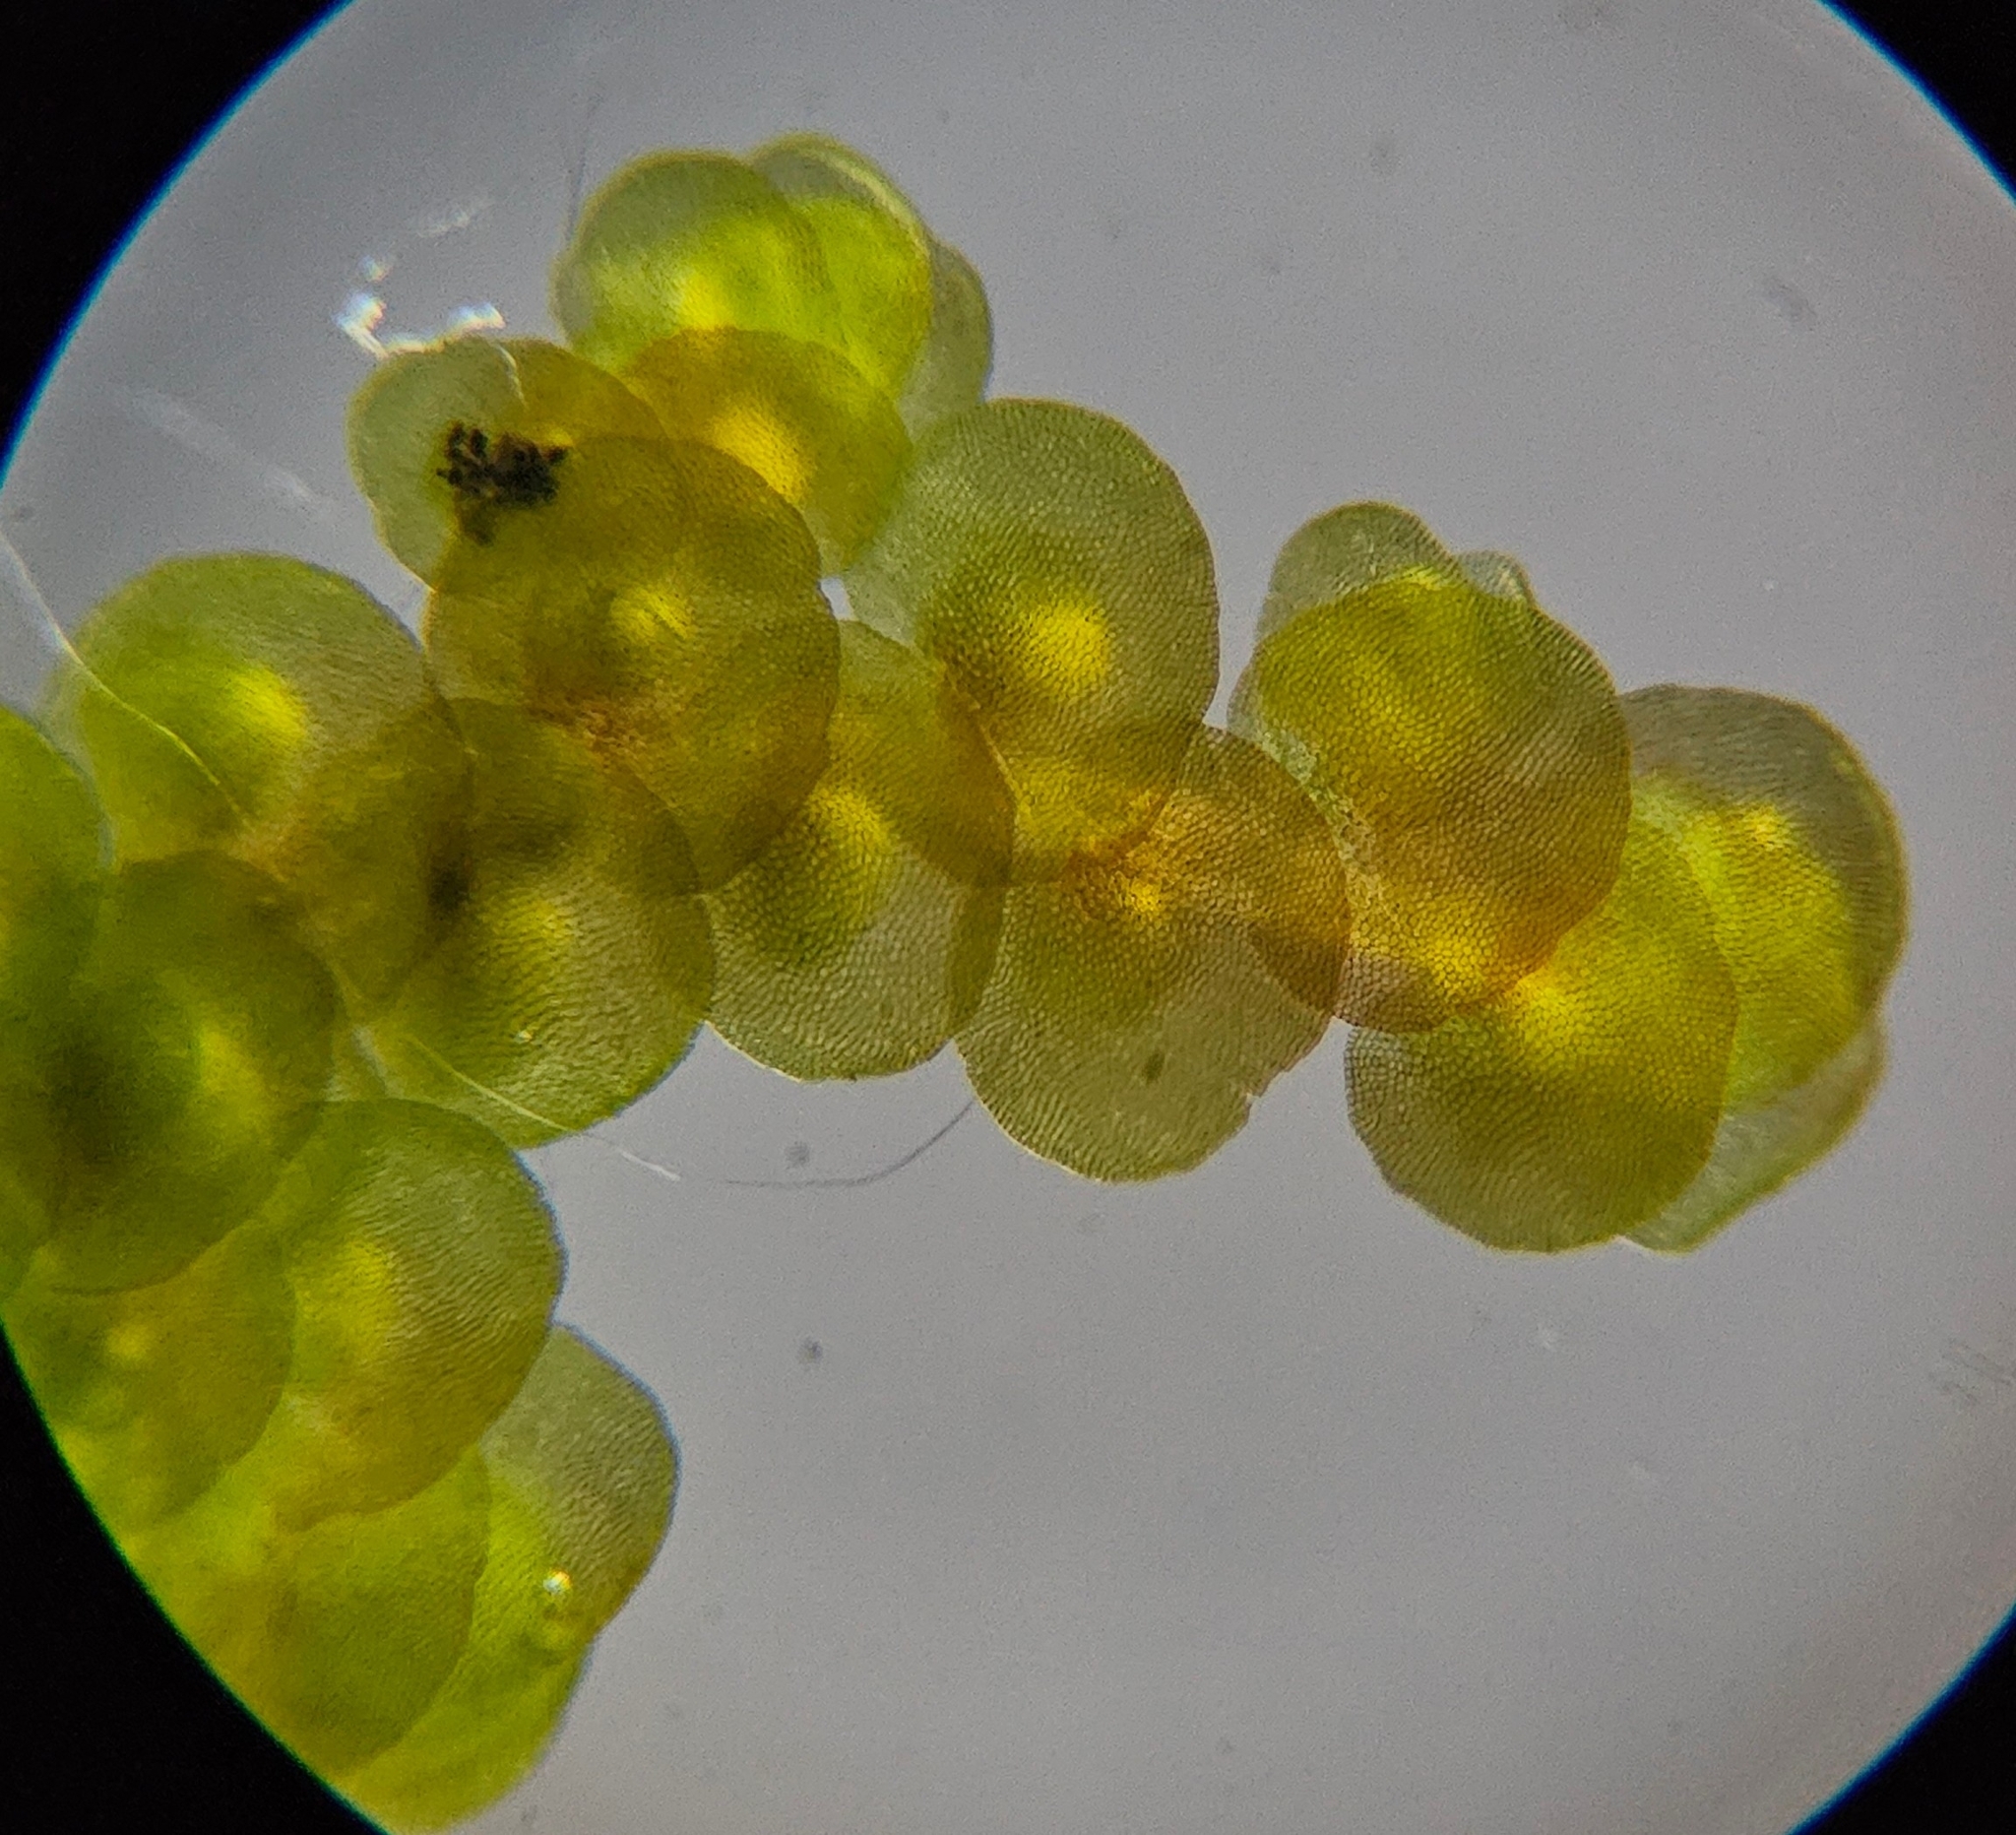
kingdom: Plantae
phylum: Marchantiophyta
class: Jungermanniopsida
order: Porellales
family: Frullaniaceae
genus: Frullania
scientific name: Frullania dilatata
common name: Dilated scalewort
